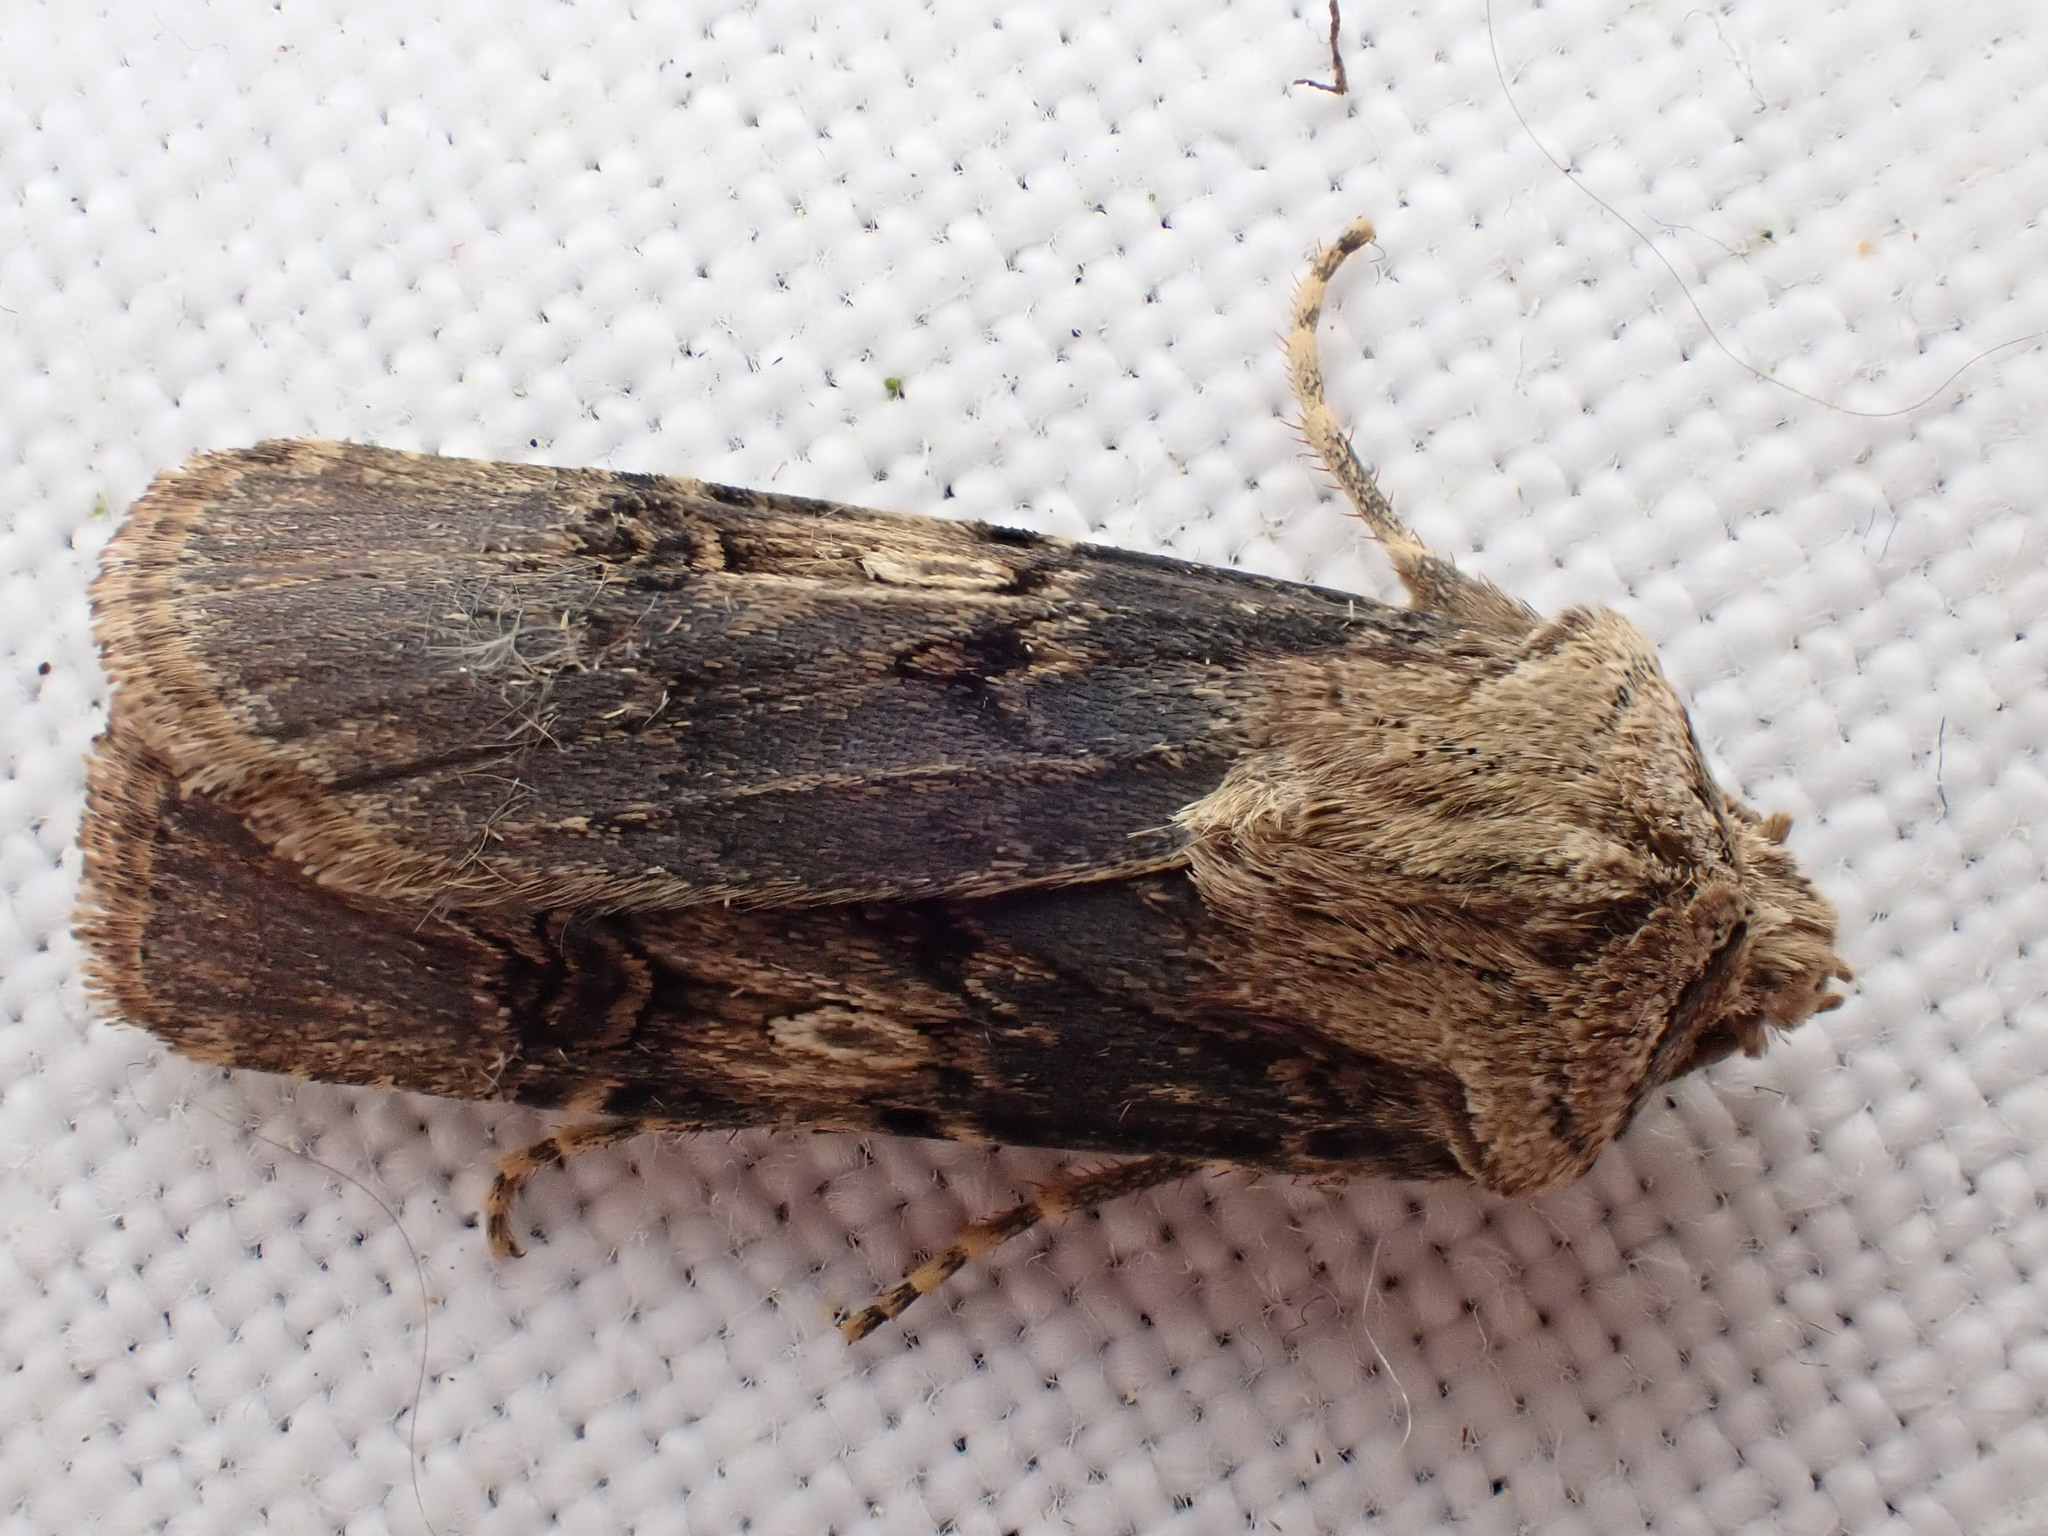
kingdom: Animalia
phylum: Arthropoda
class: Insecta
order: Lepidoptera
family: Noctuidae
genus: Agrotis
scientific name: Agrotis puta
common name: Shuttle-shaped dart
